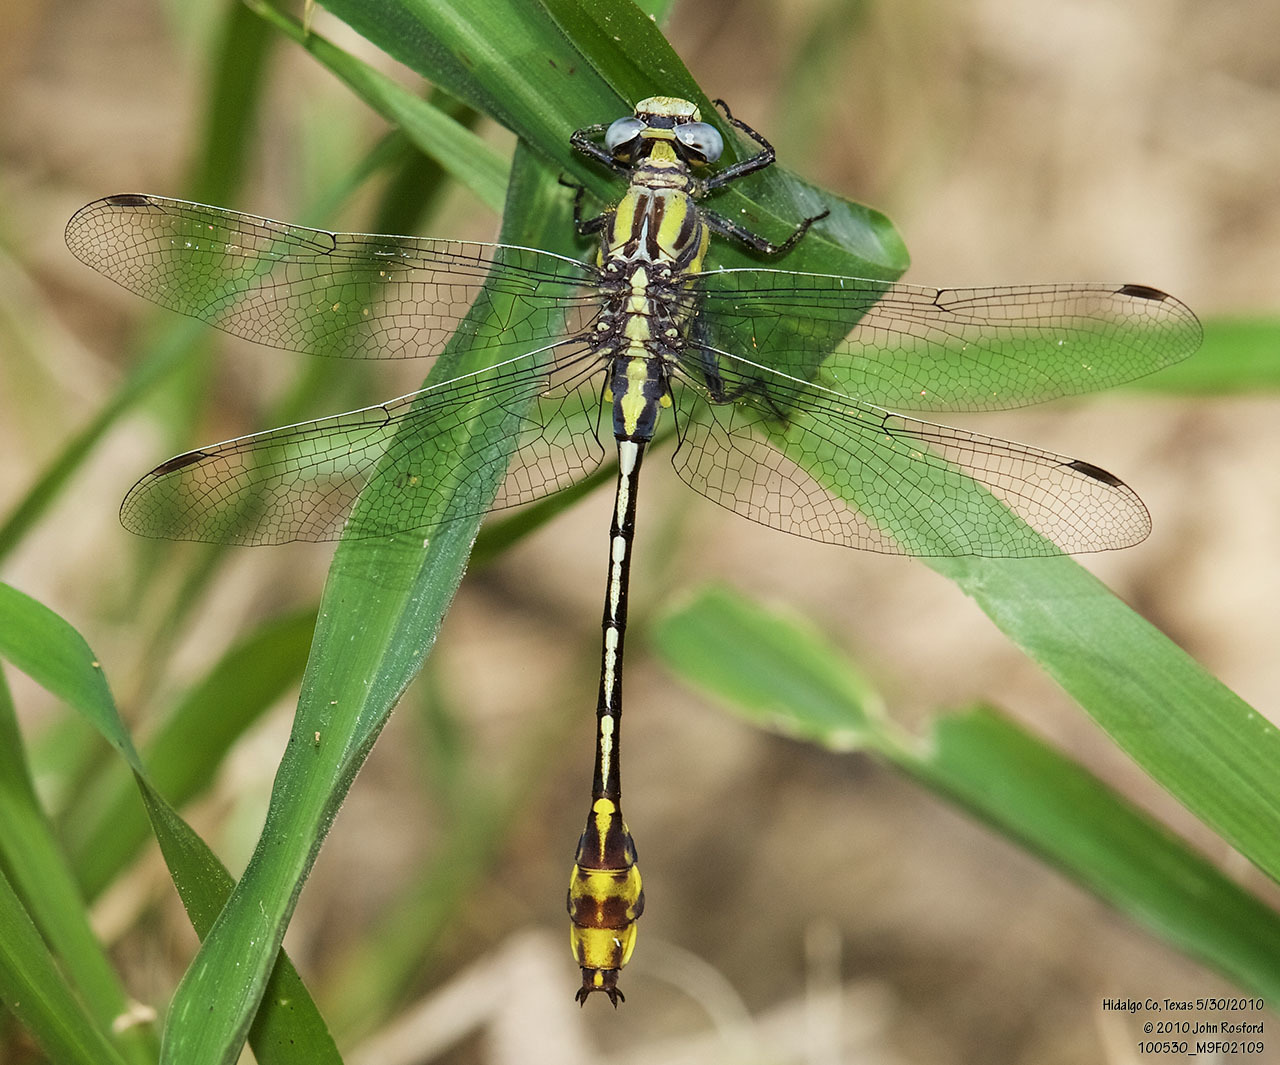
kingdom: Animalia
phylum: Arthropoda
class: Insecta
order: Odonata
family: Gomphidae
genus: Gomphurus
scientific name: Gomphurus gonzalezi
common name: Tamaulipan clubtail
